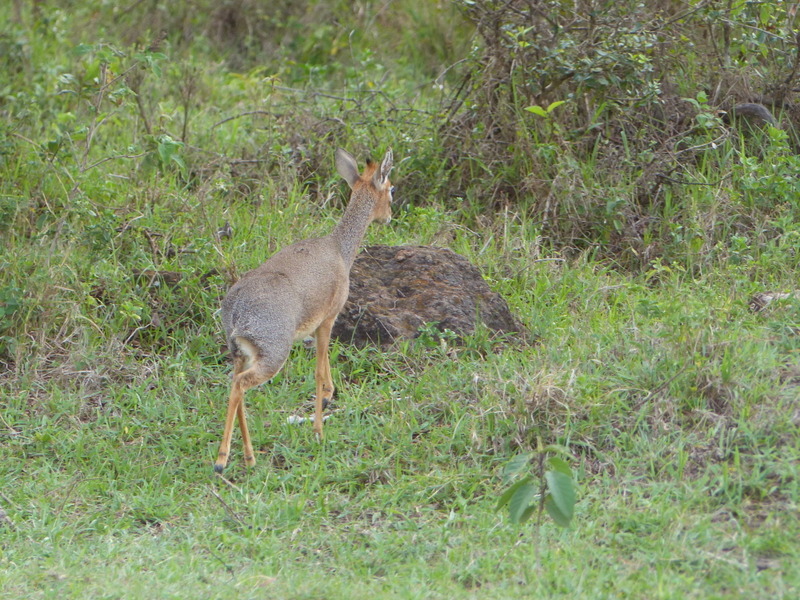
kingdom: Animalia
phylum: Chordata
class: Mammalia
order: Artiodactyla
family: Bovidae
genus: Madoqua
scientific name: Madoqua
